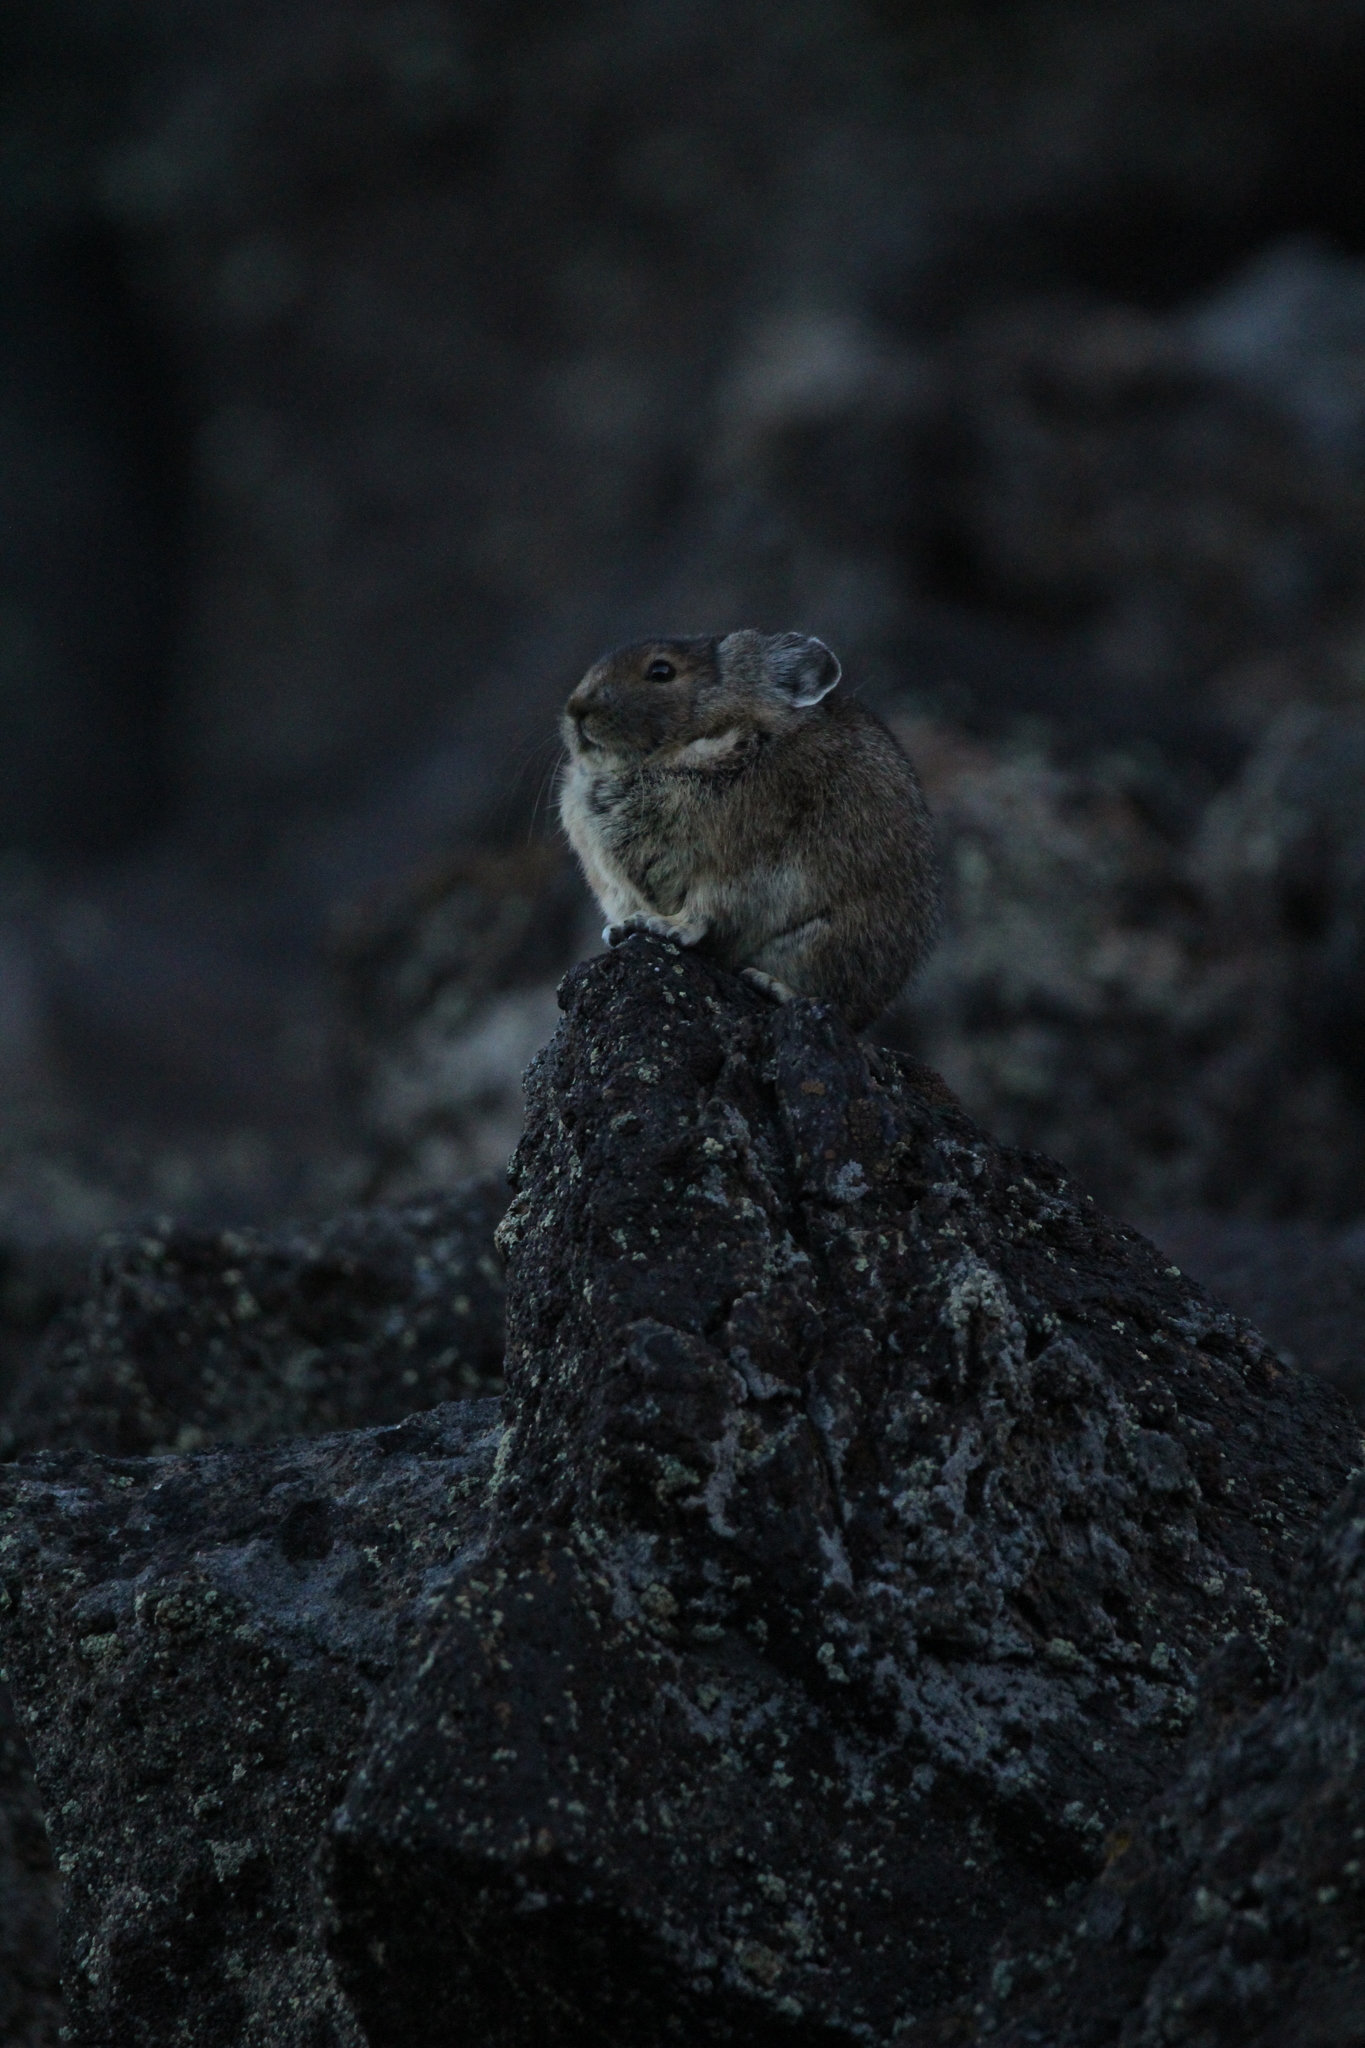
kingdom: Animalia
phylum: Chordata
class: Mammalia
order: Lagomorpha
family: Ochotonidae
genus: Ochotona
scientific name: Ochotona princeps
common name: American pika
